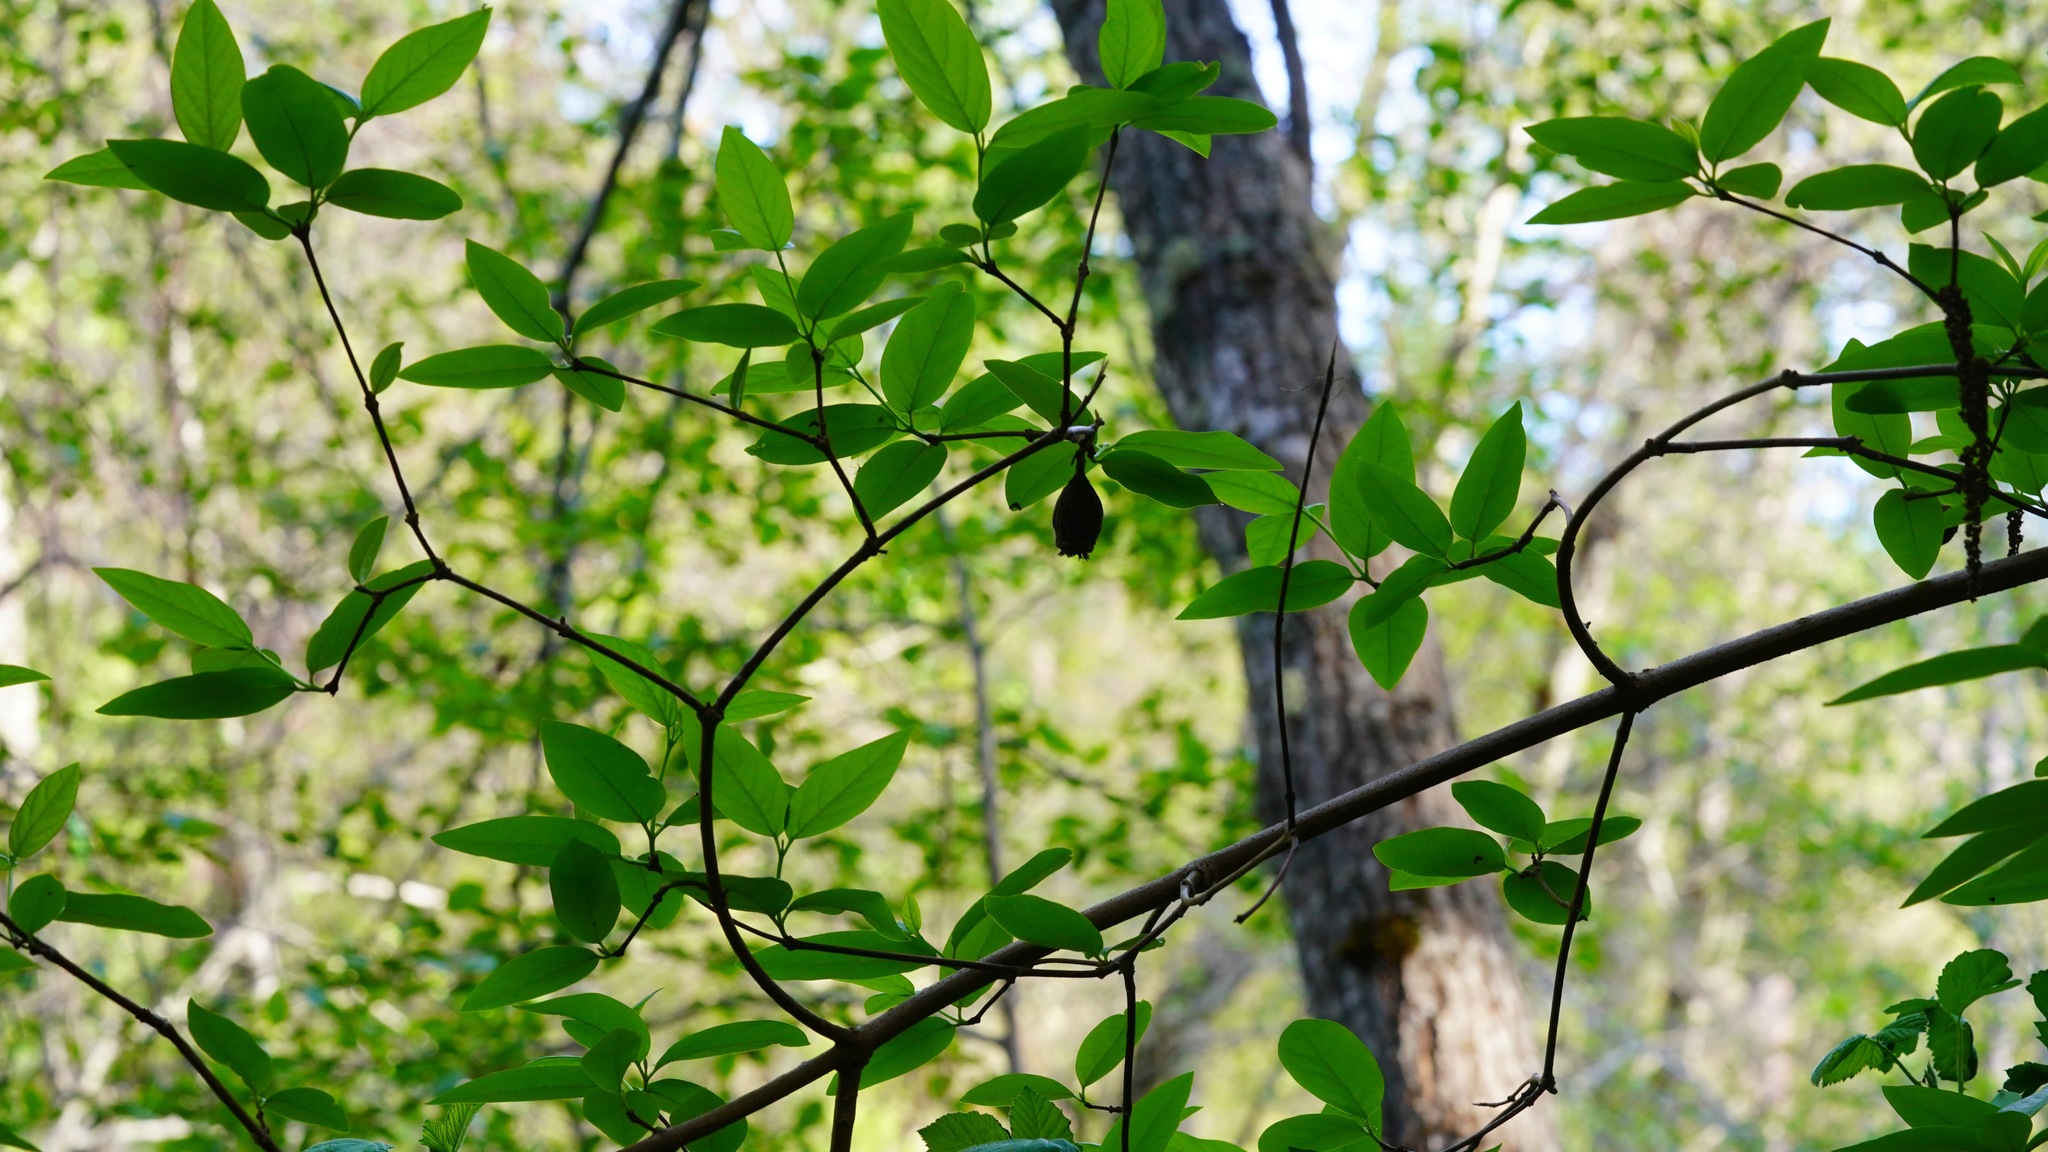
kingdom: Plantae
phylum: Tracheophyta
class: Magnoliopsida
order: Laurales
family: Calycanthaceae
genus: Calycanthus
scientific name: Calycanthus occidentalis
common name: California spicebush
